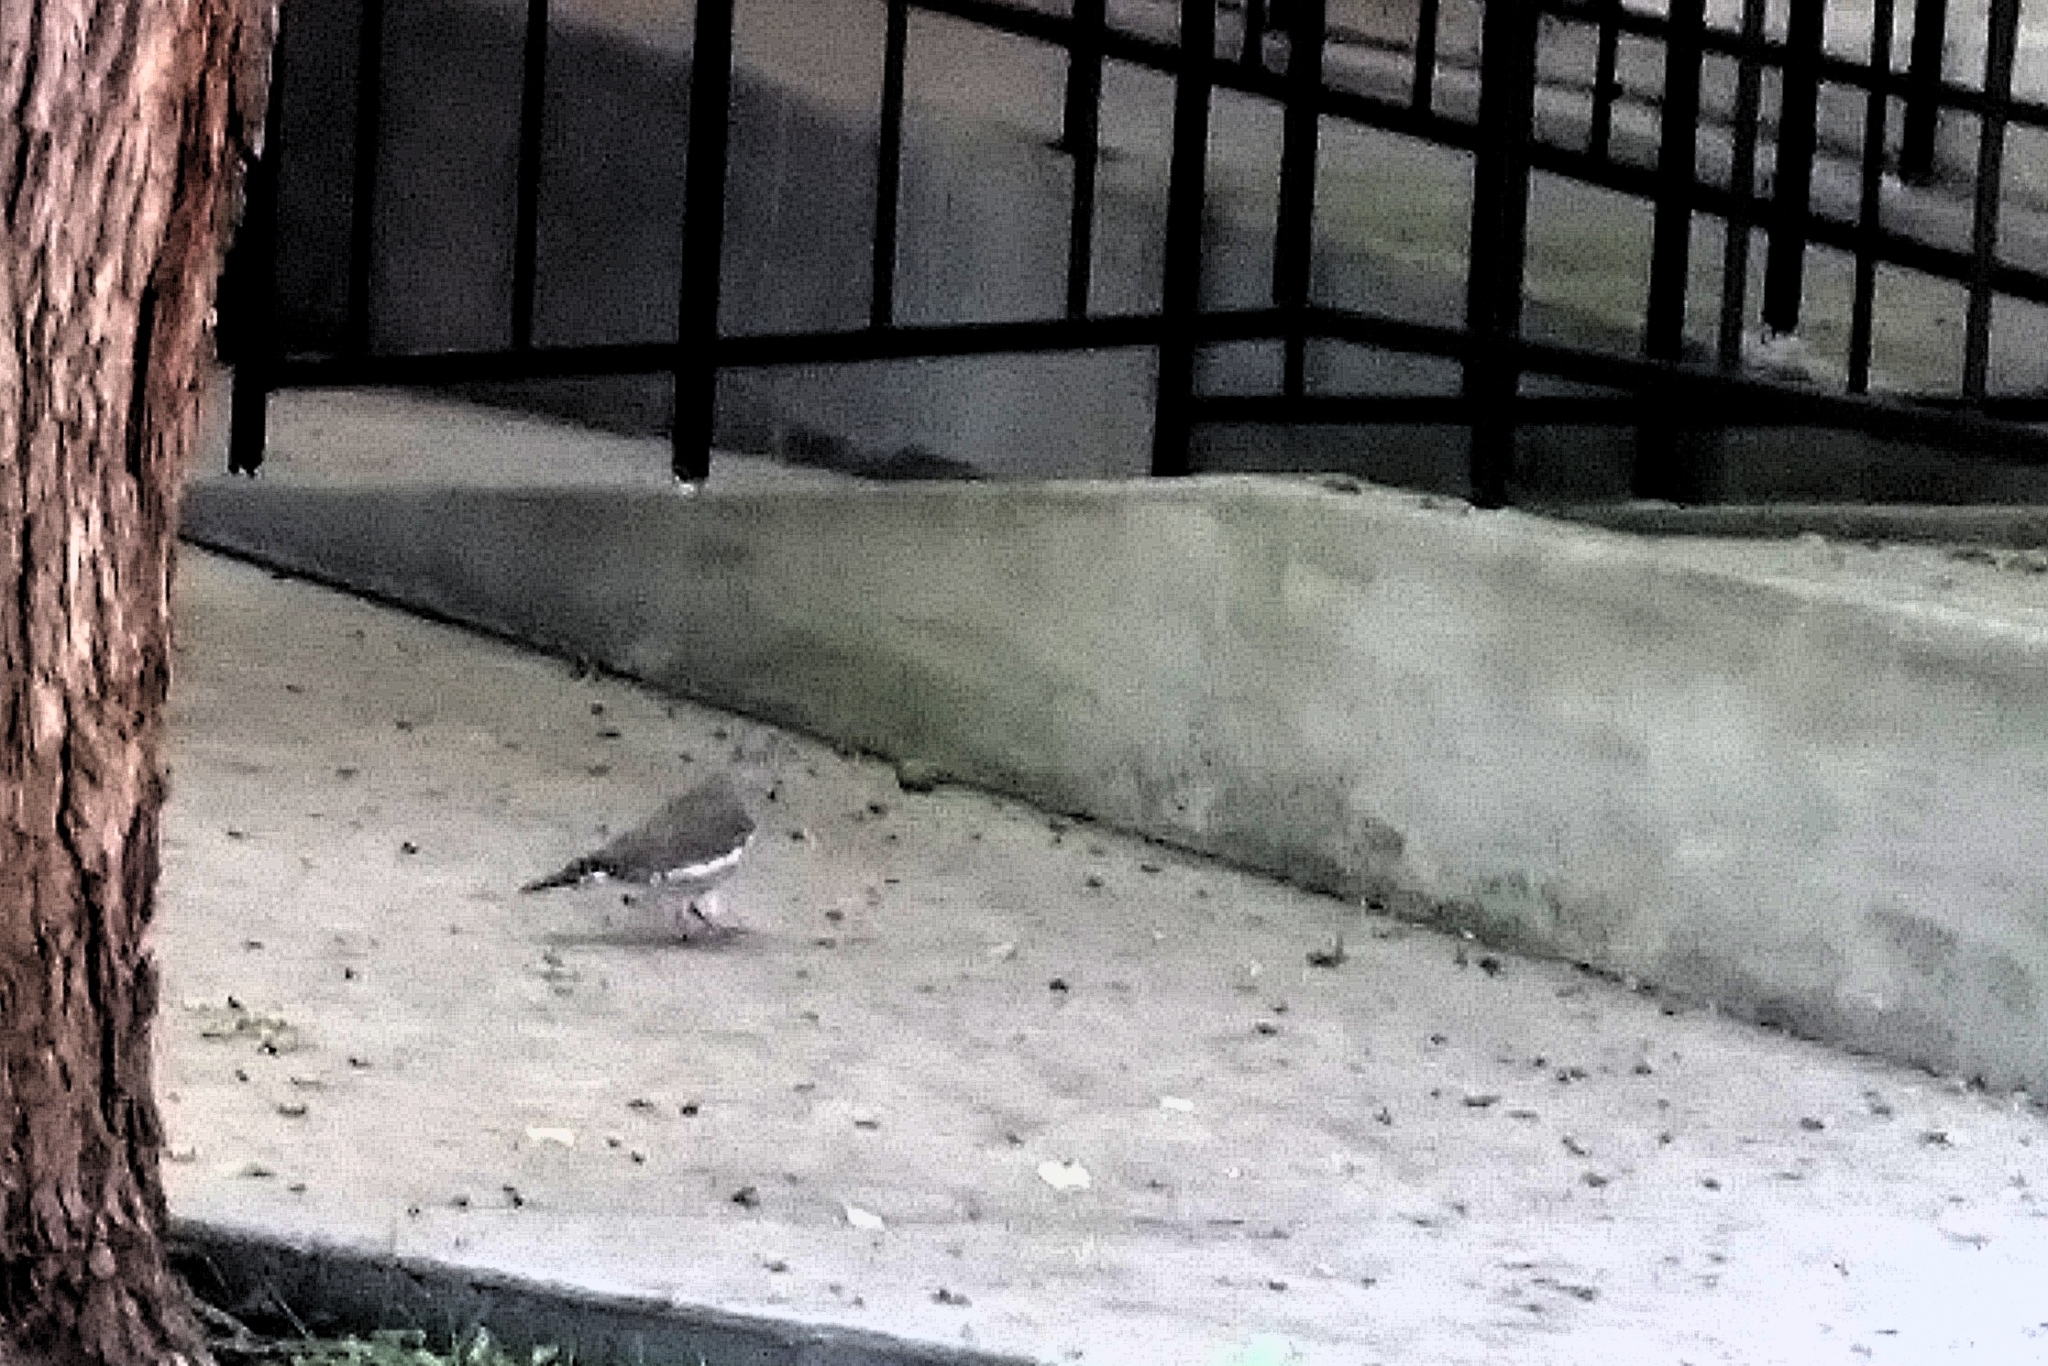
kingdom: Animalia
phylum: Chordata
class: Aves
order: Columbiformes
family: Columbidae
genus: Zenaida
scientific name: Zenaida asiatica
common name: White-winged dove
